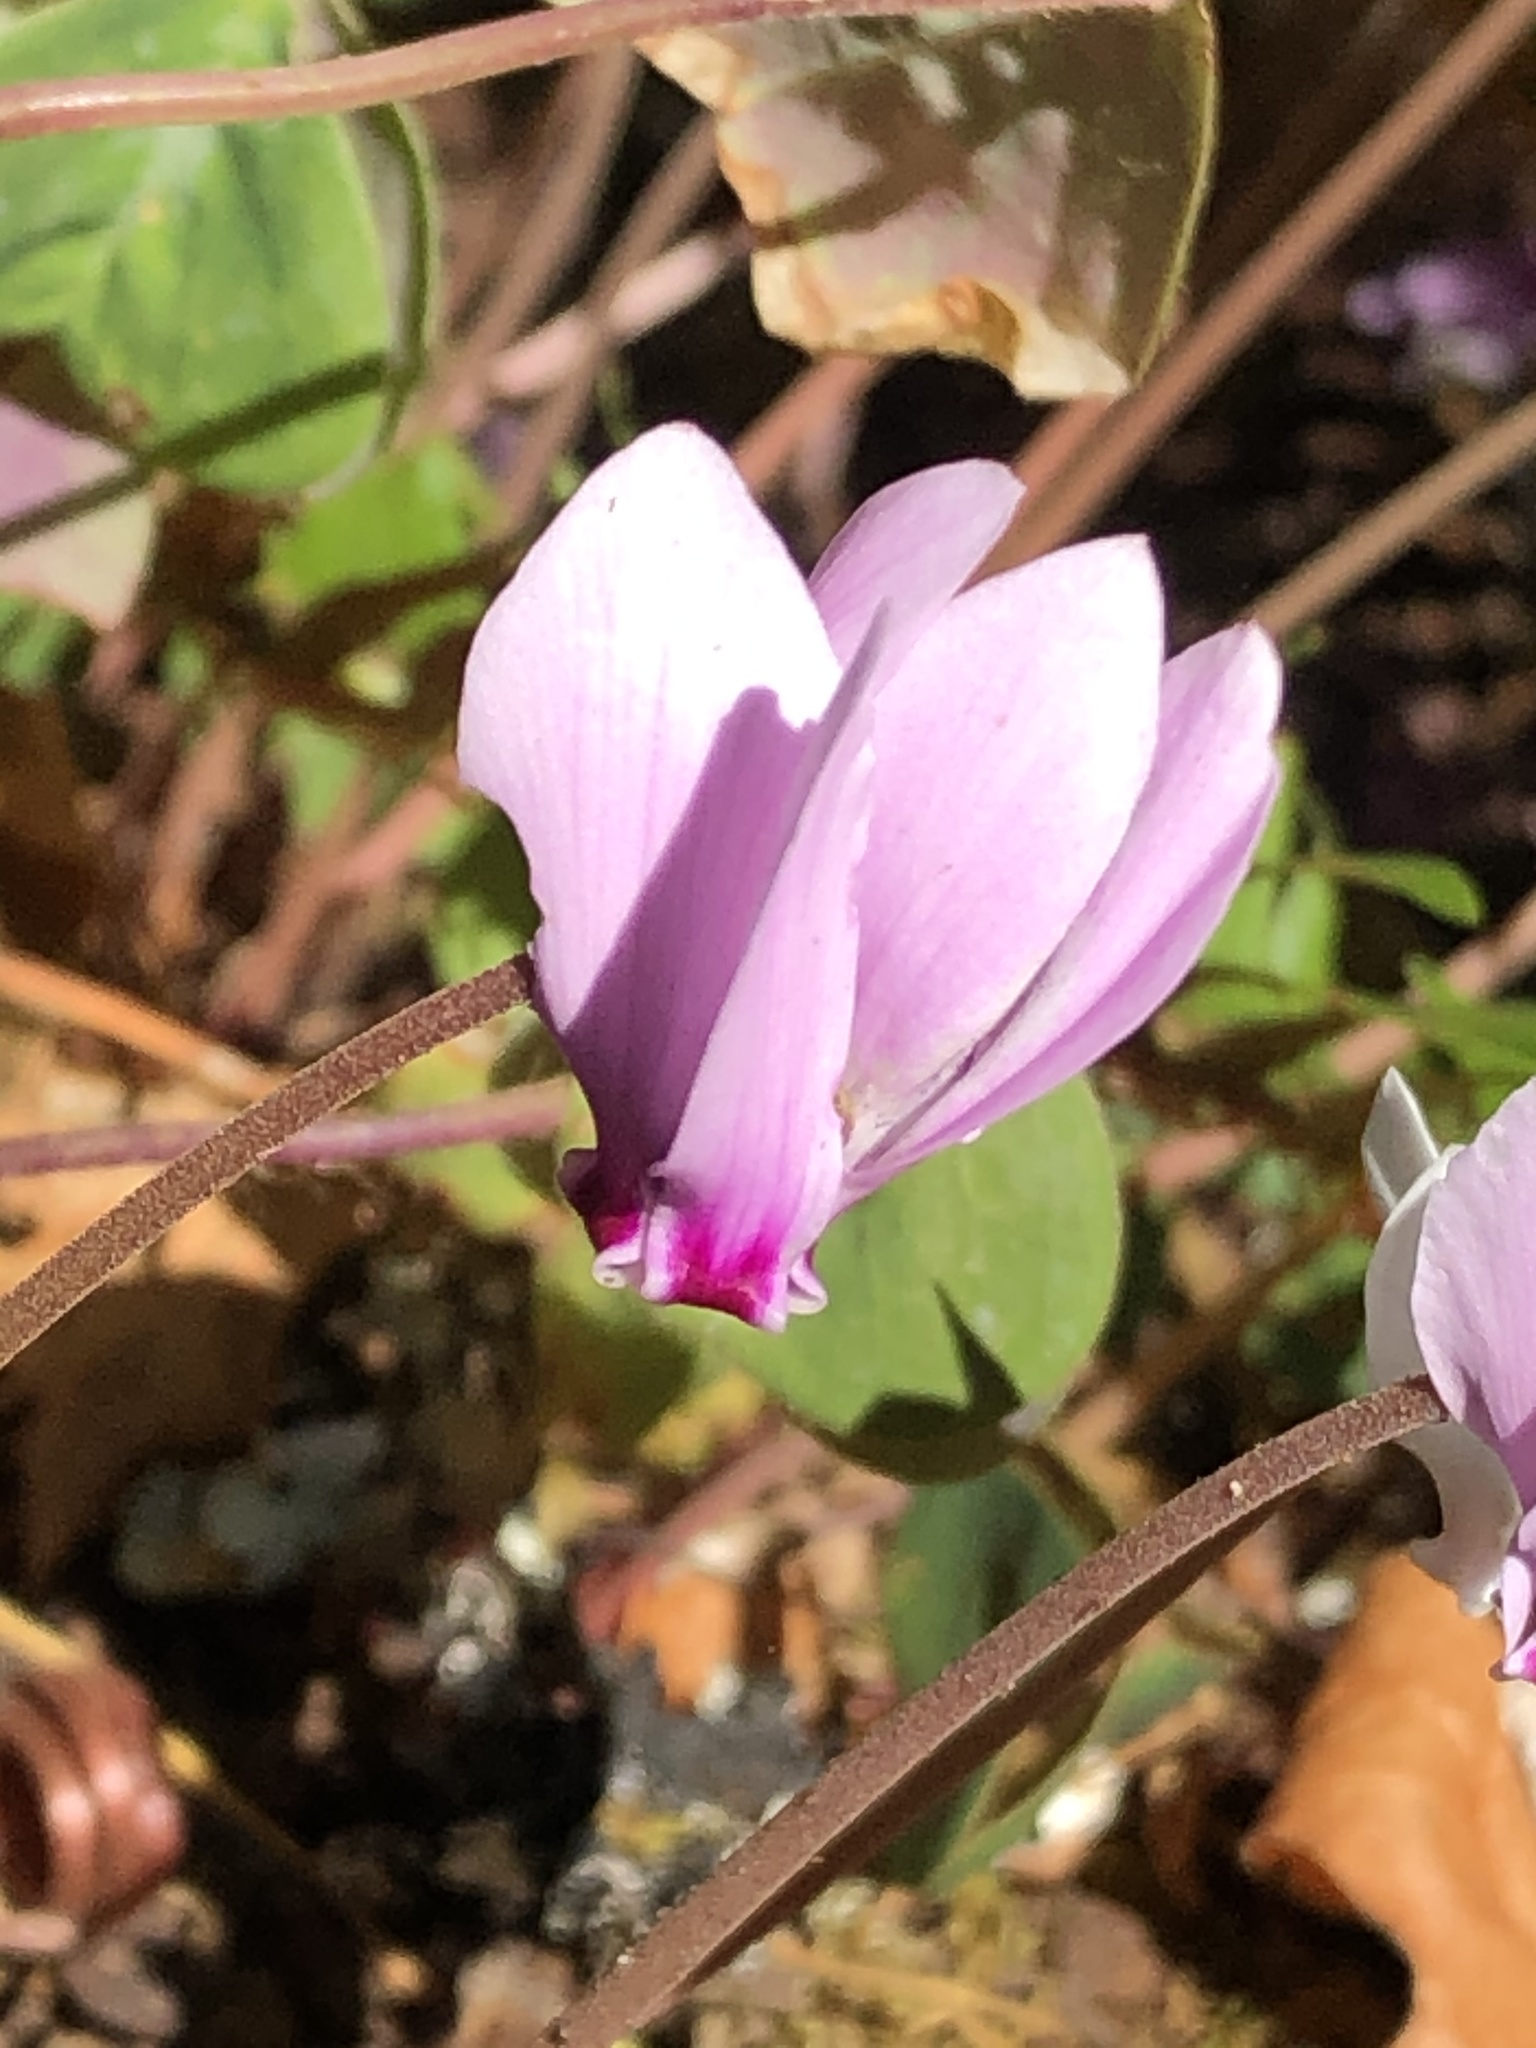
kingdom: Plantae
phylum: Tracheophyta
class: Magnoliopsida
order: Ericales
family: Primulaceae
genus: Cyclamen
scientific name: Cyclamen hederifolium
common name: Sowbread
